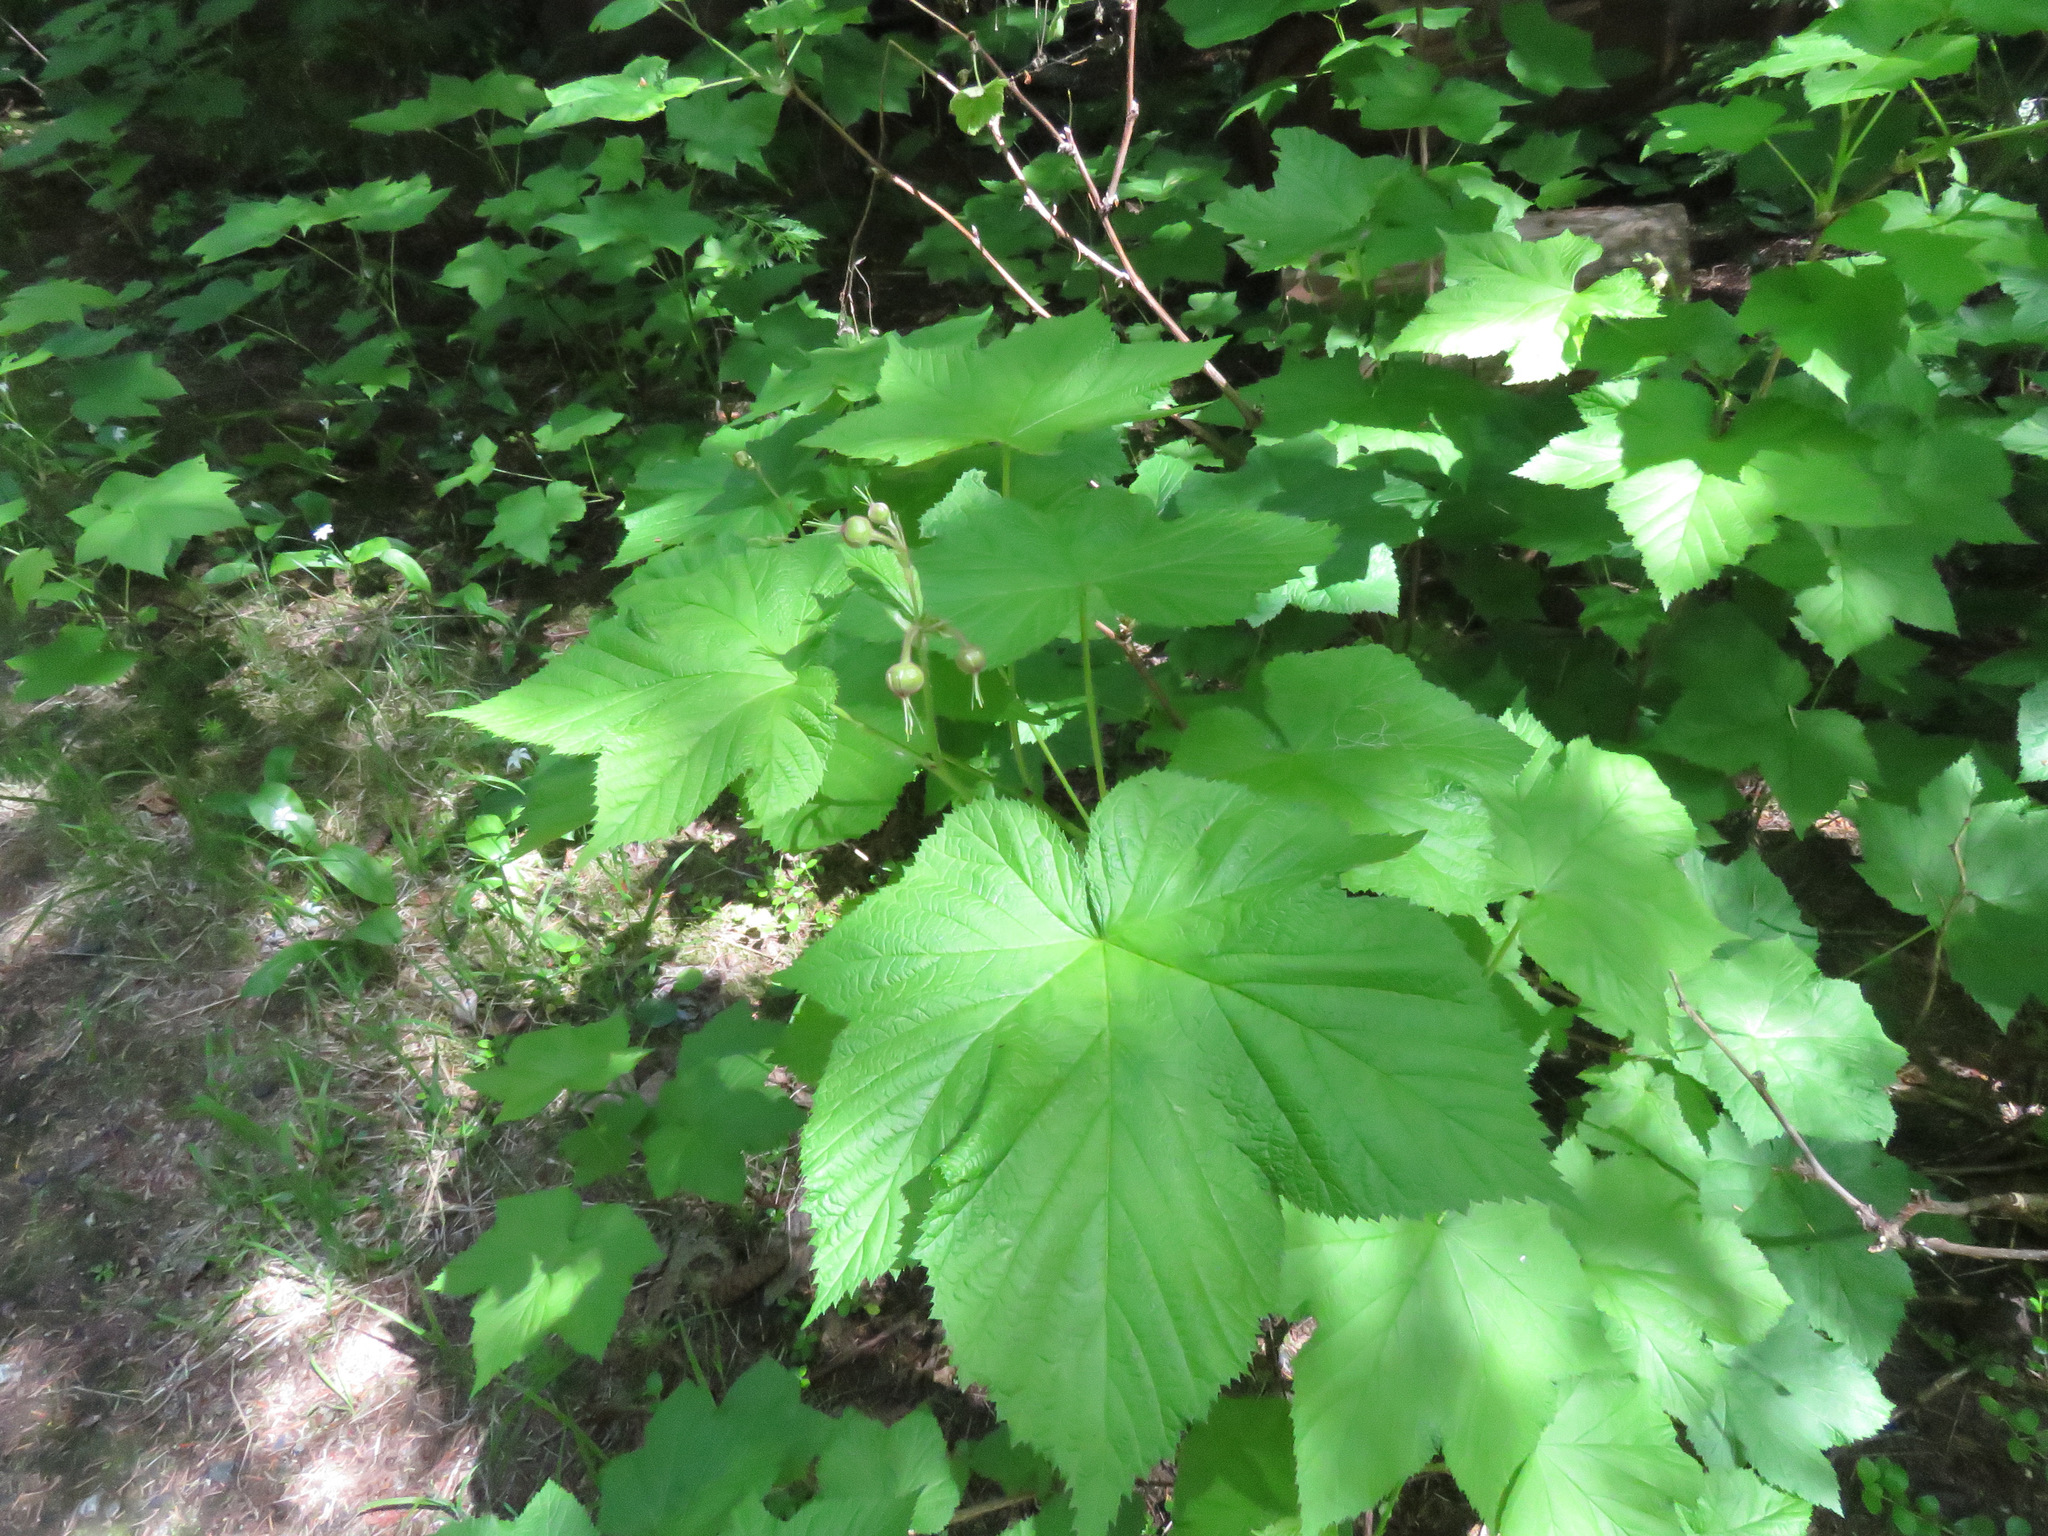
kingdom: Plantae
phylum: Tracheophyta
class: Magnoliopsida
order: Rosales
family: Rosaceae
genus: Rubus
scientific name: Rubus parviflorus
